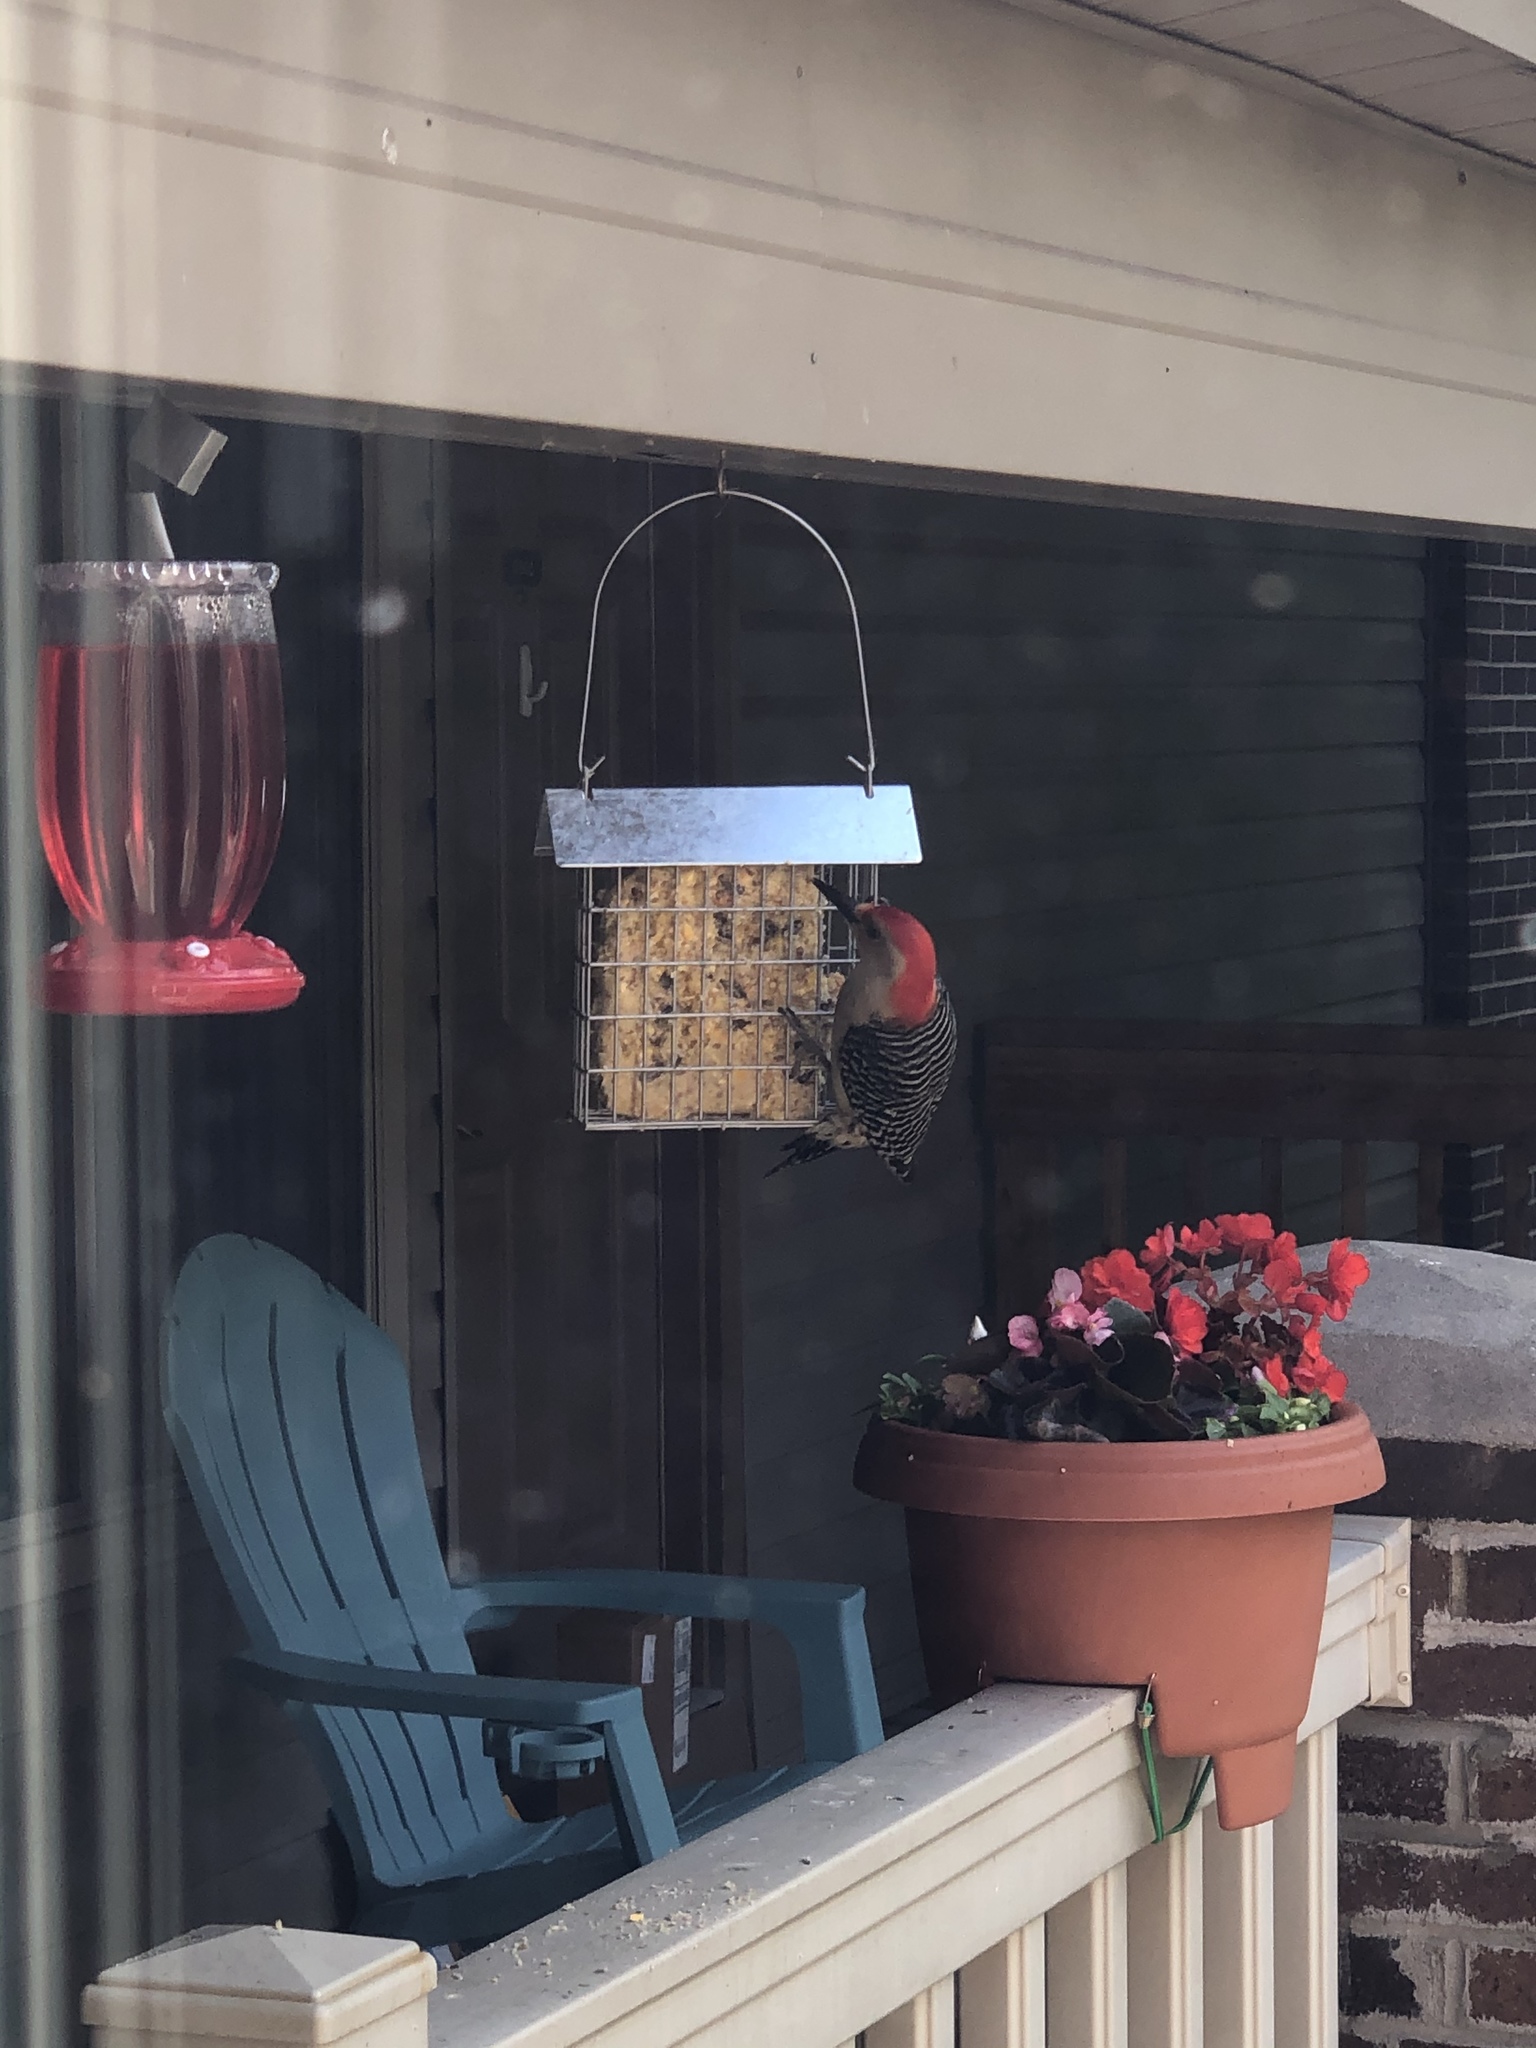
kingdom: Animalia
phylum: Chordata
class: Aves
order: Piciformes
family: Picidae
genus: Melanerpes
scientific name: Melanerpes carolinus
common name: Red-bellied woodpecker
